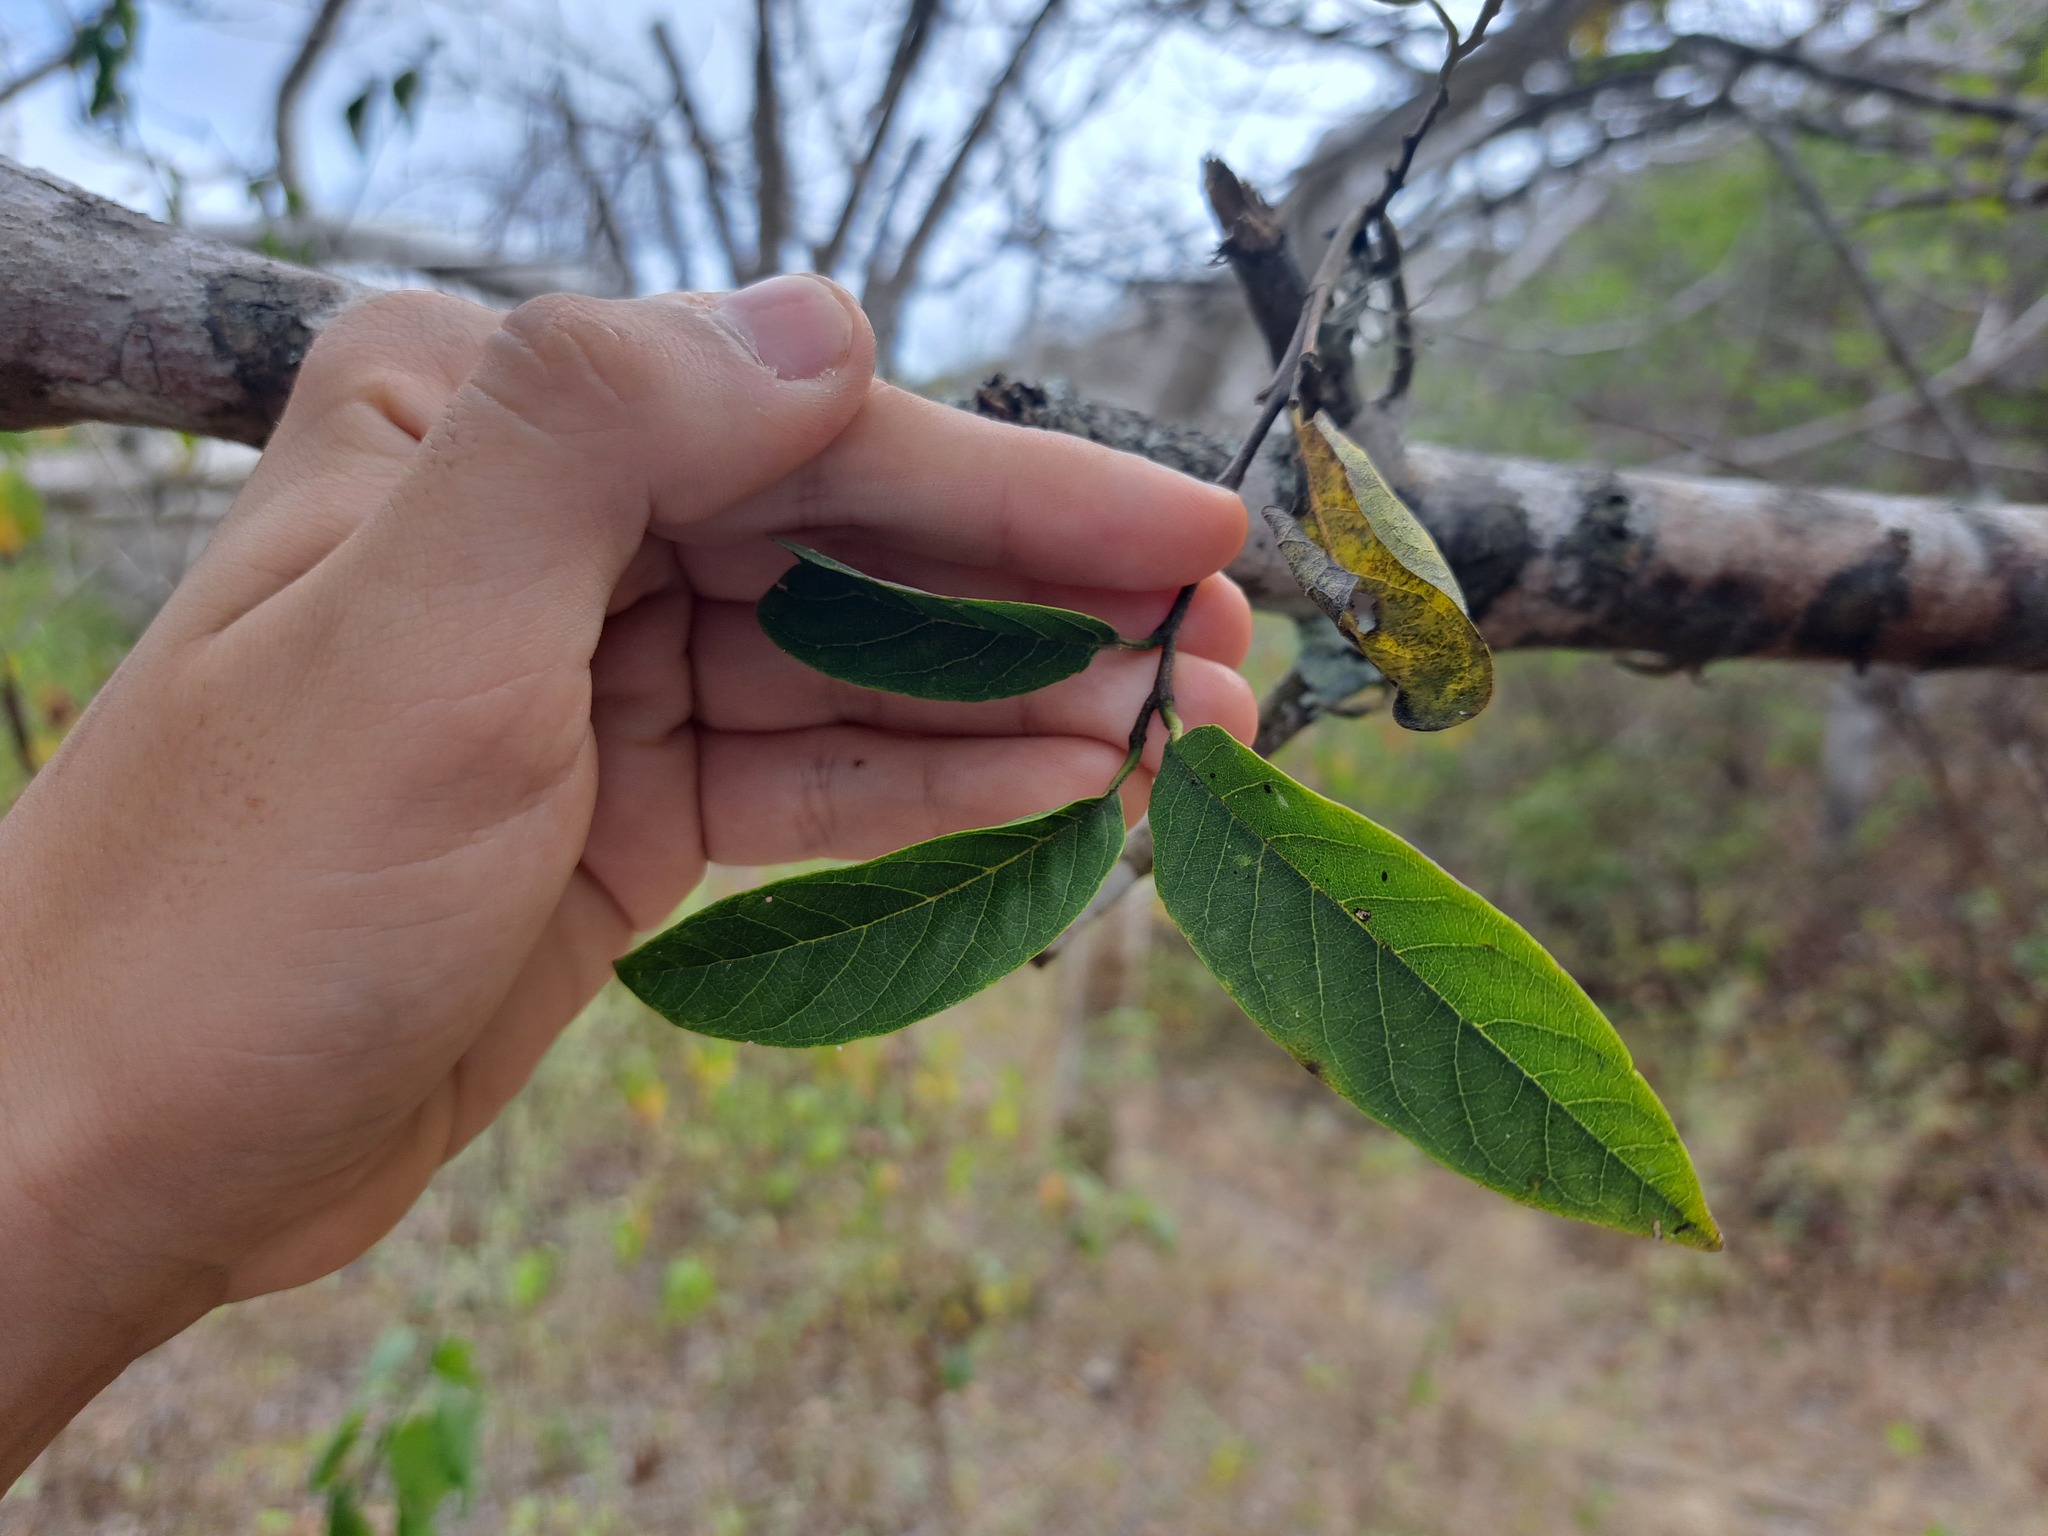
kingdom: Plantae
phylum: Tracheophyta
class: Magnoliopsida
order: Magnoliales
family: Annonaceae
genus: Annona
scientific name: Annona squamosa
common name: Custard-apple
